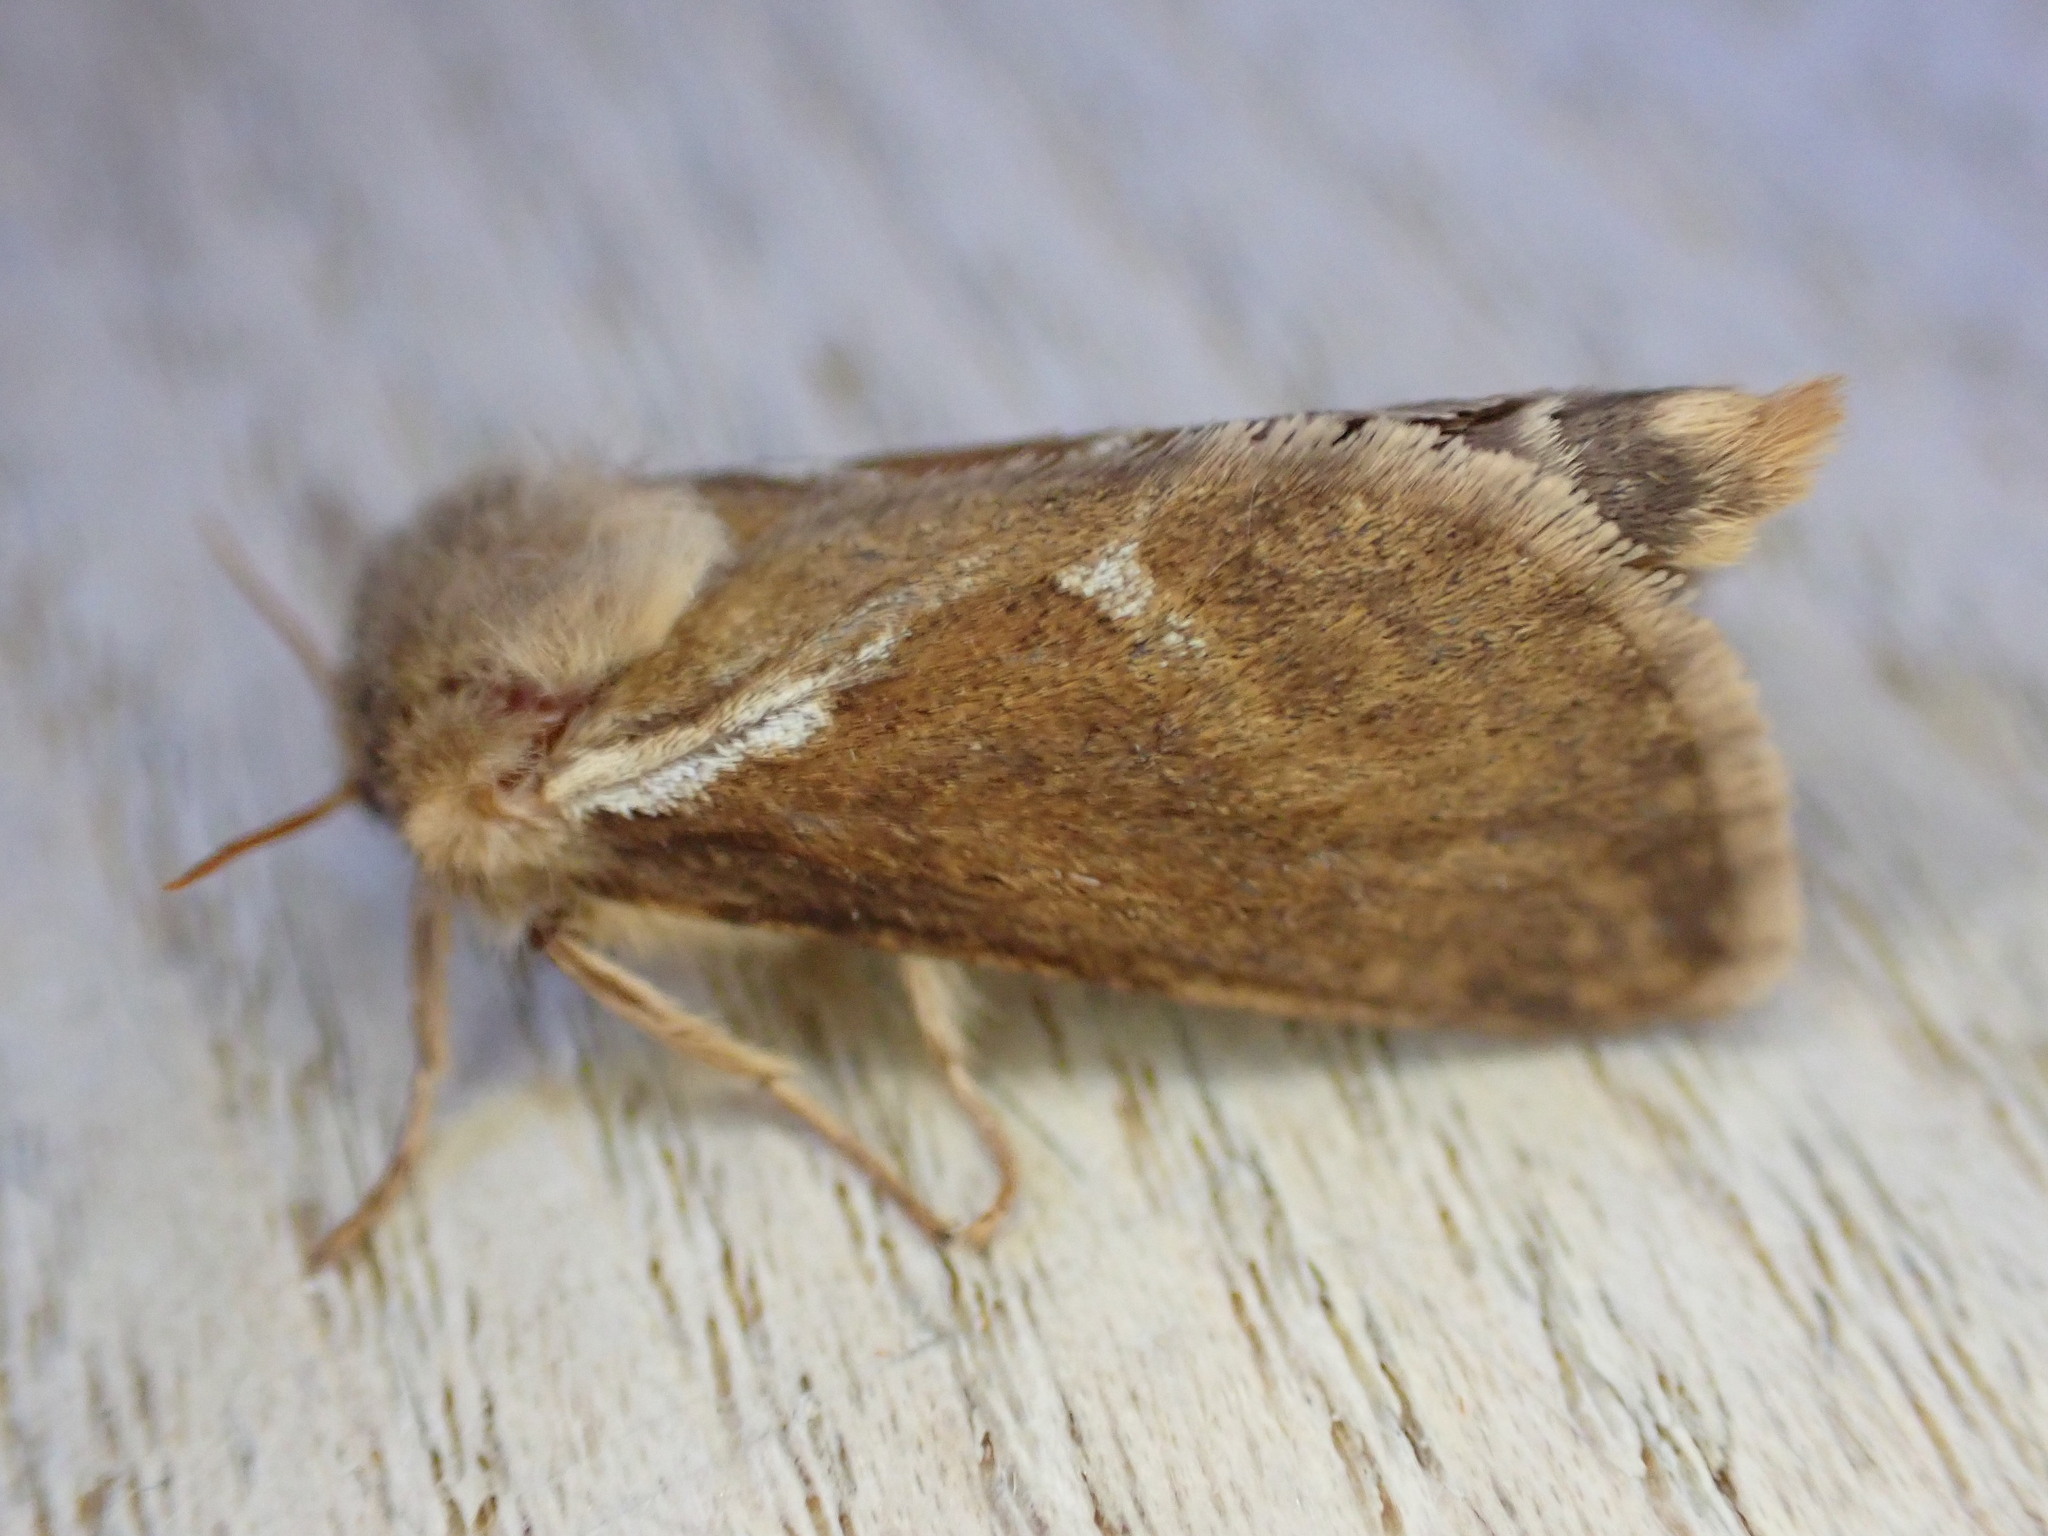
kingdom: Animalia
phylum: Arthropoda
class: Insecta
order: Lepidoptera
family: Hepialidae
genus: Korscheltellus
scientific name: Korscheltellus lupulina
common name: Common swift
